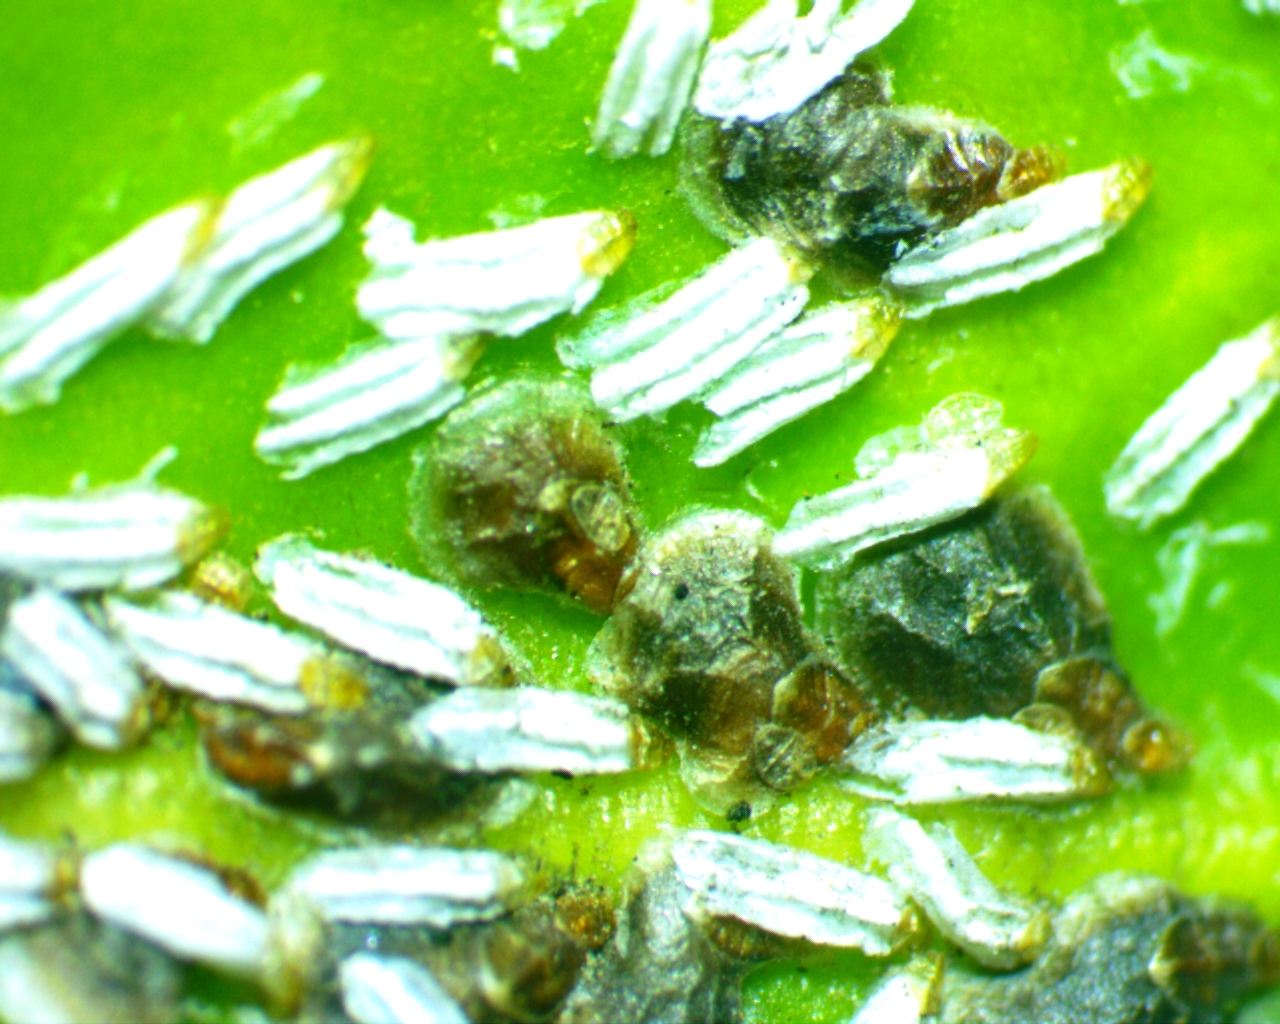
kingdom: Animalia
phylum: Arthropoda
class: Insecta
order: Hemiptera
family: Diaspididae
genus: Unaspis
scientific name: Unaspis euonymi
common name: Euonymus scale
